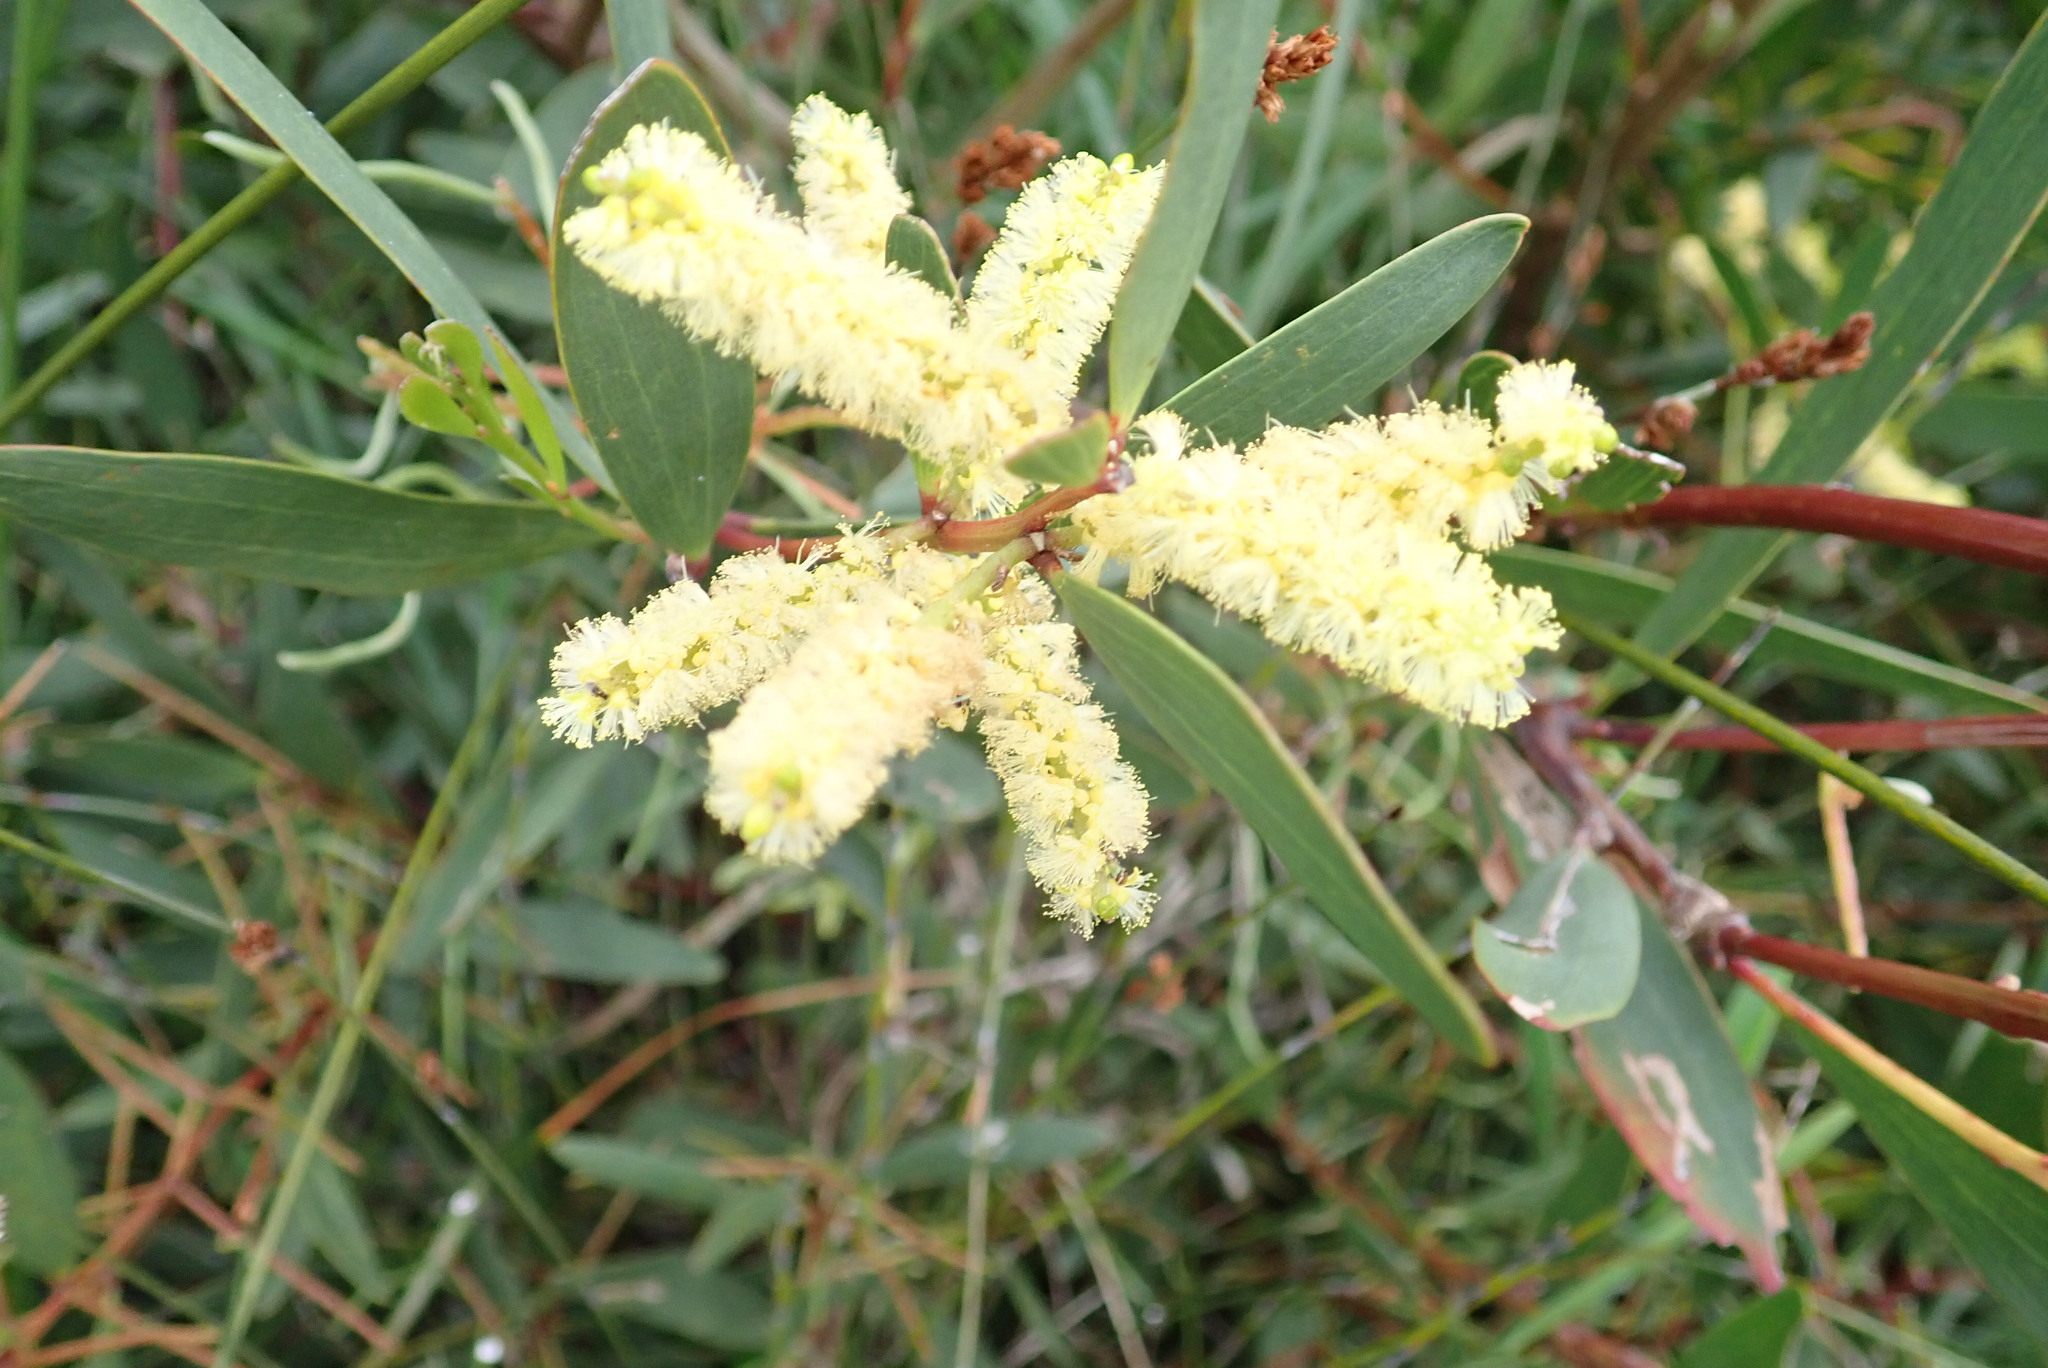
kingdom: Plantae
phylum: Tracheophyta
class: Magnoliopsida
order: Fabales
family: Fabaceae
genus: Acacia
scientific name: Acacia longifolia
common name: Sydney golden wattle
